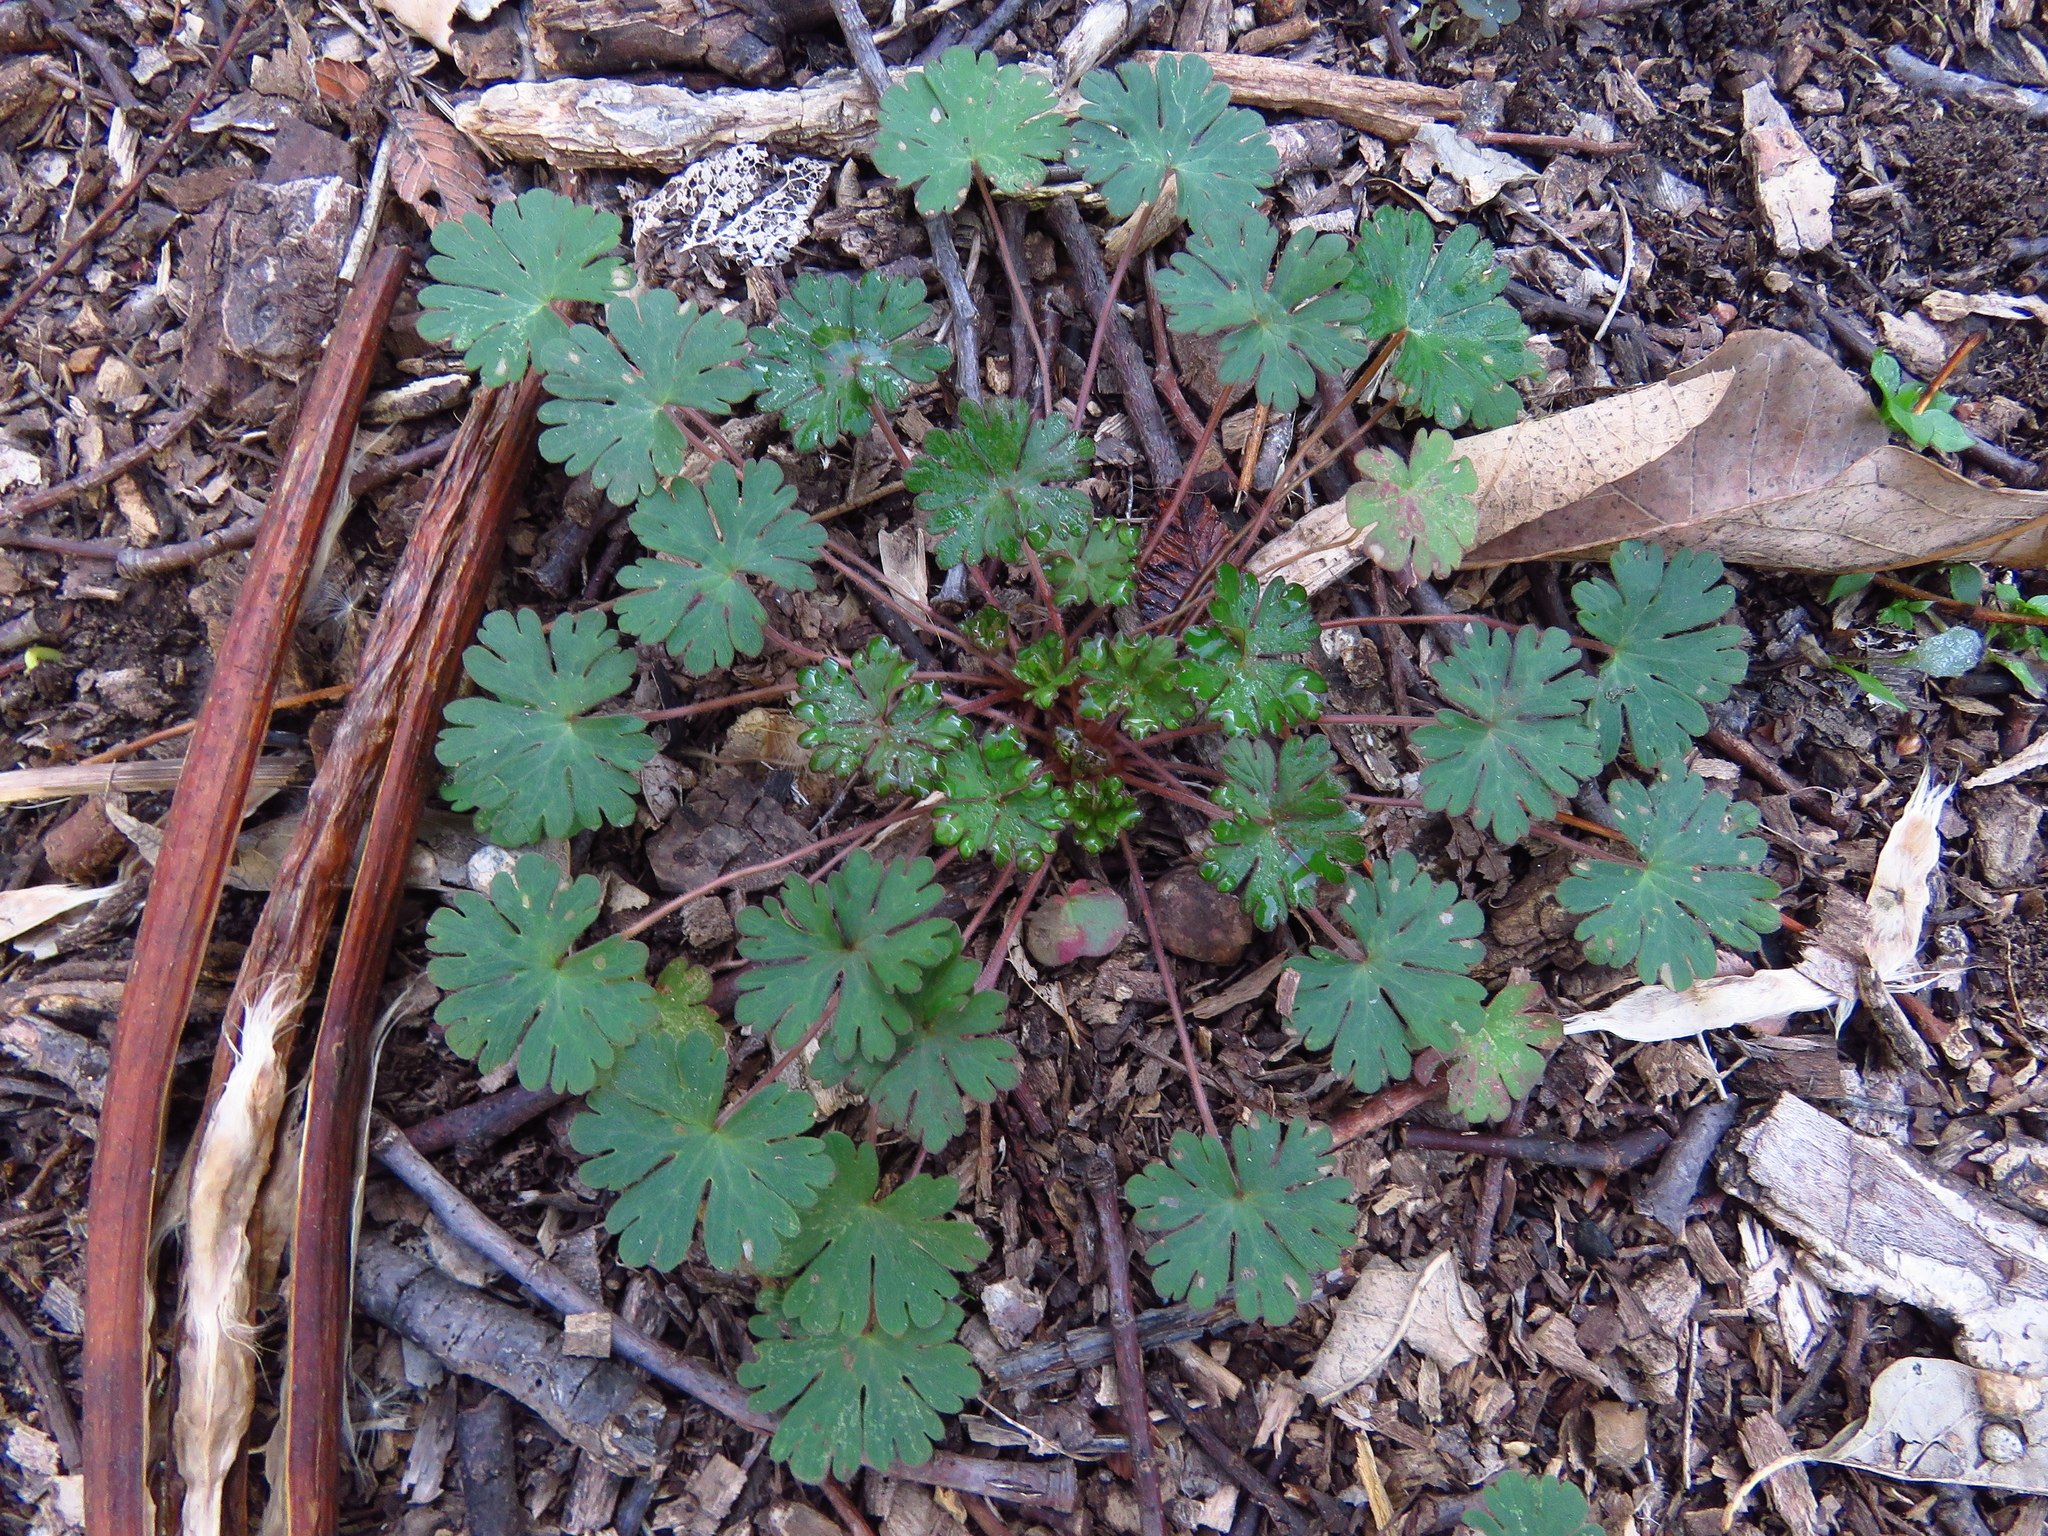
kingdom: Plantae
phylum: Tracheophyta
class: Magnoliopsida
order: Geraniales
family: Geraniaceae
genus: Geranium
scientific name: Geranium carolinianum
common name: Carolina crane's-bill
